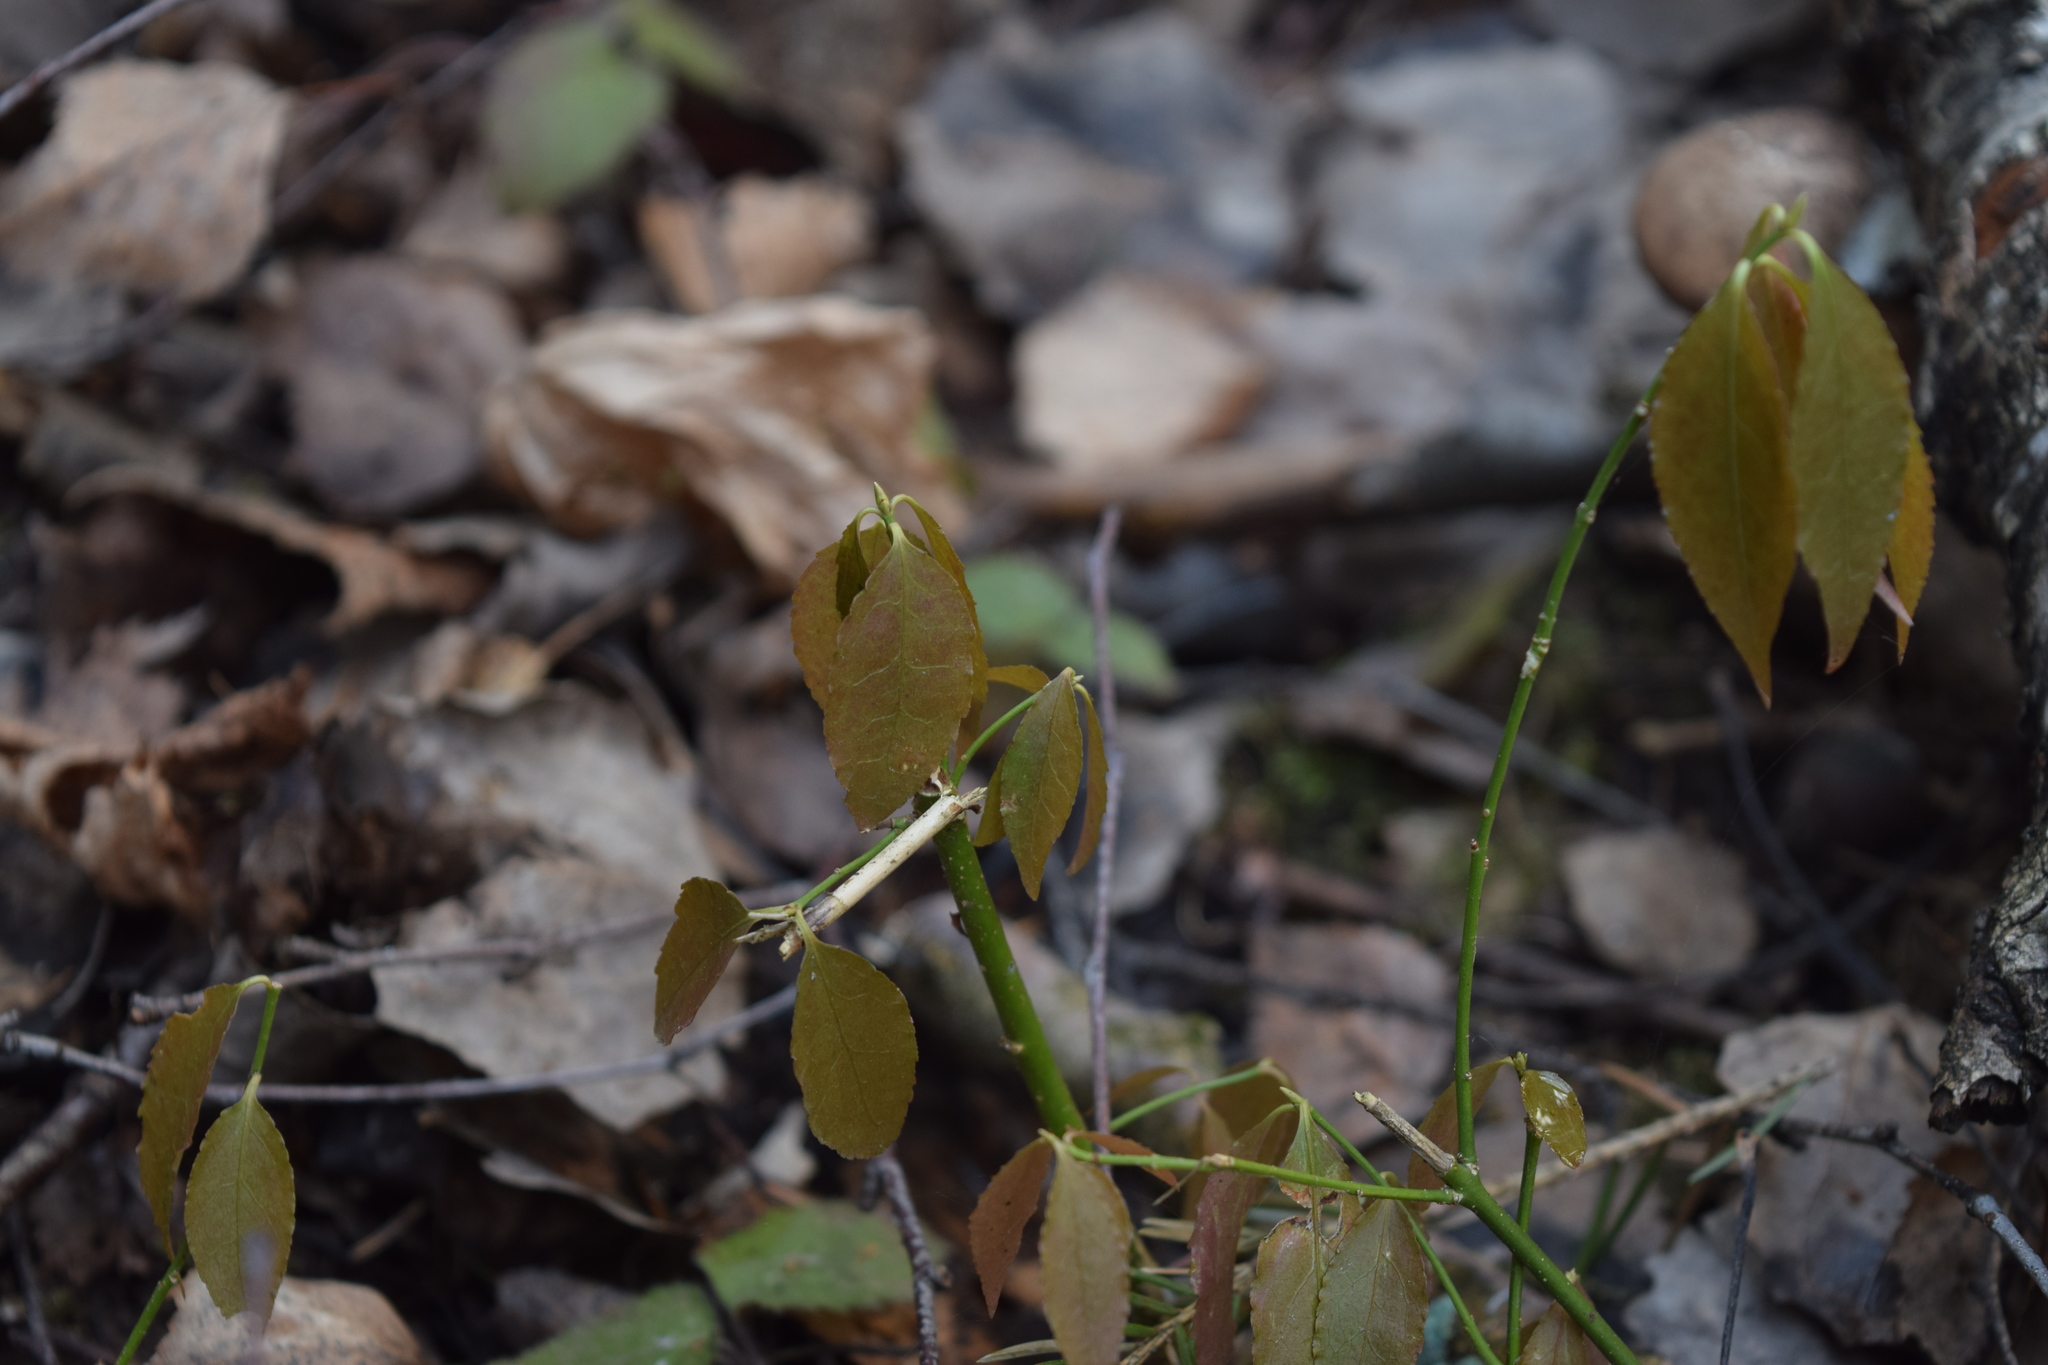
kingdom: Plantae
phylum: Tracheophyta
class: Magnoliopsida
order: Celastrales
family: Celastraceae
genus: Euonymus
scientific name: Euonymus europaeus
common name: Spindle
